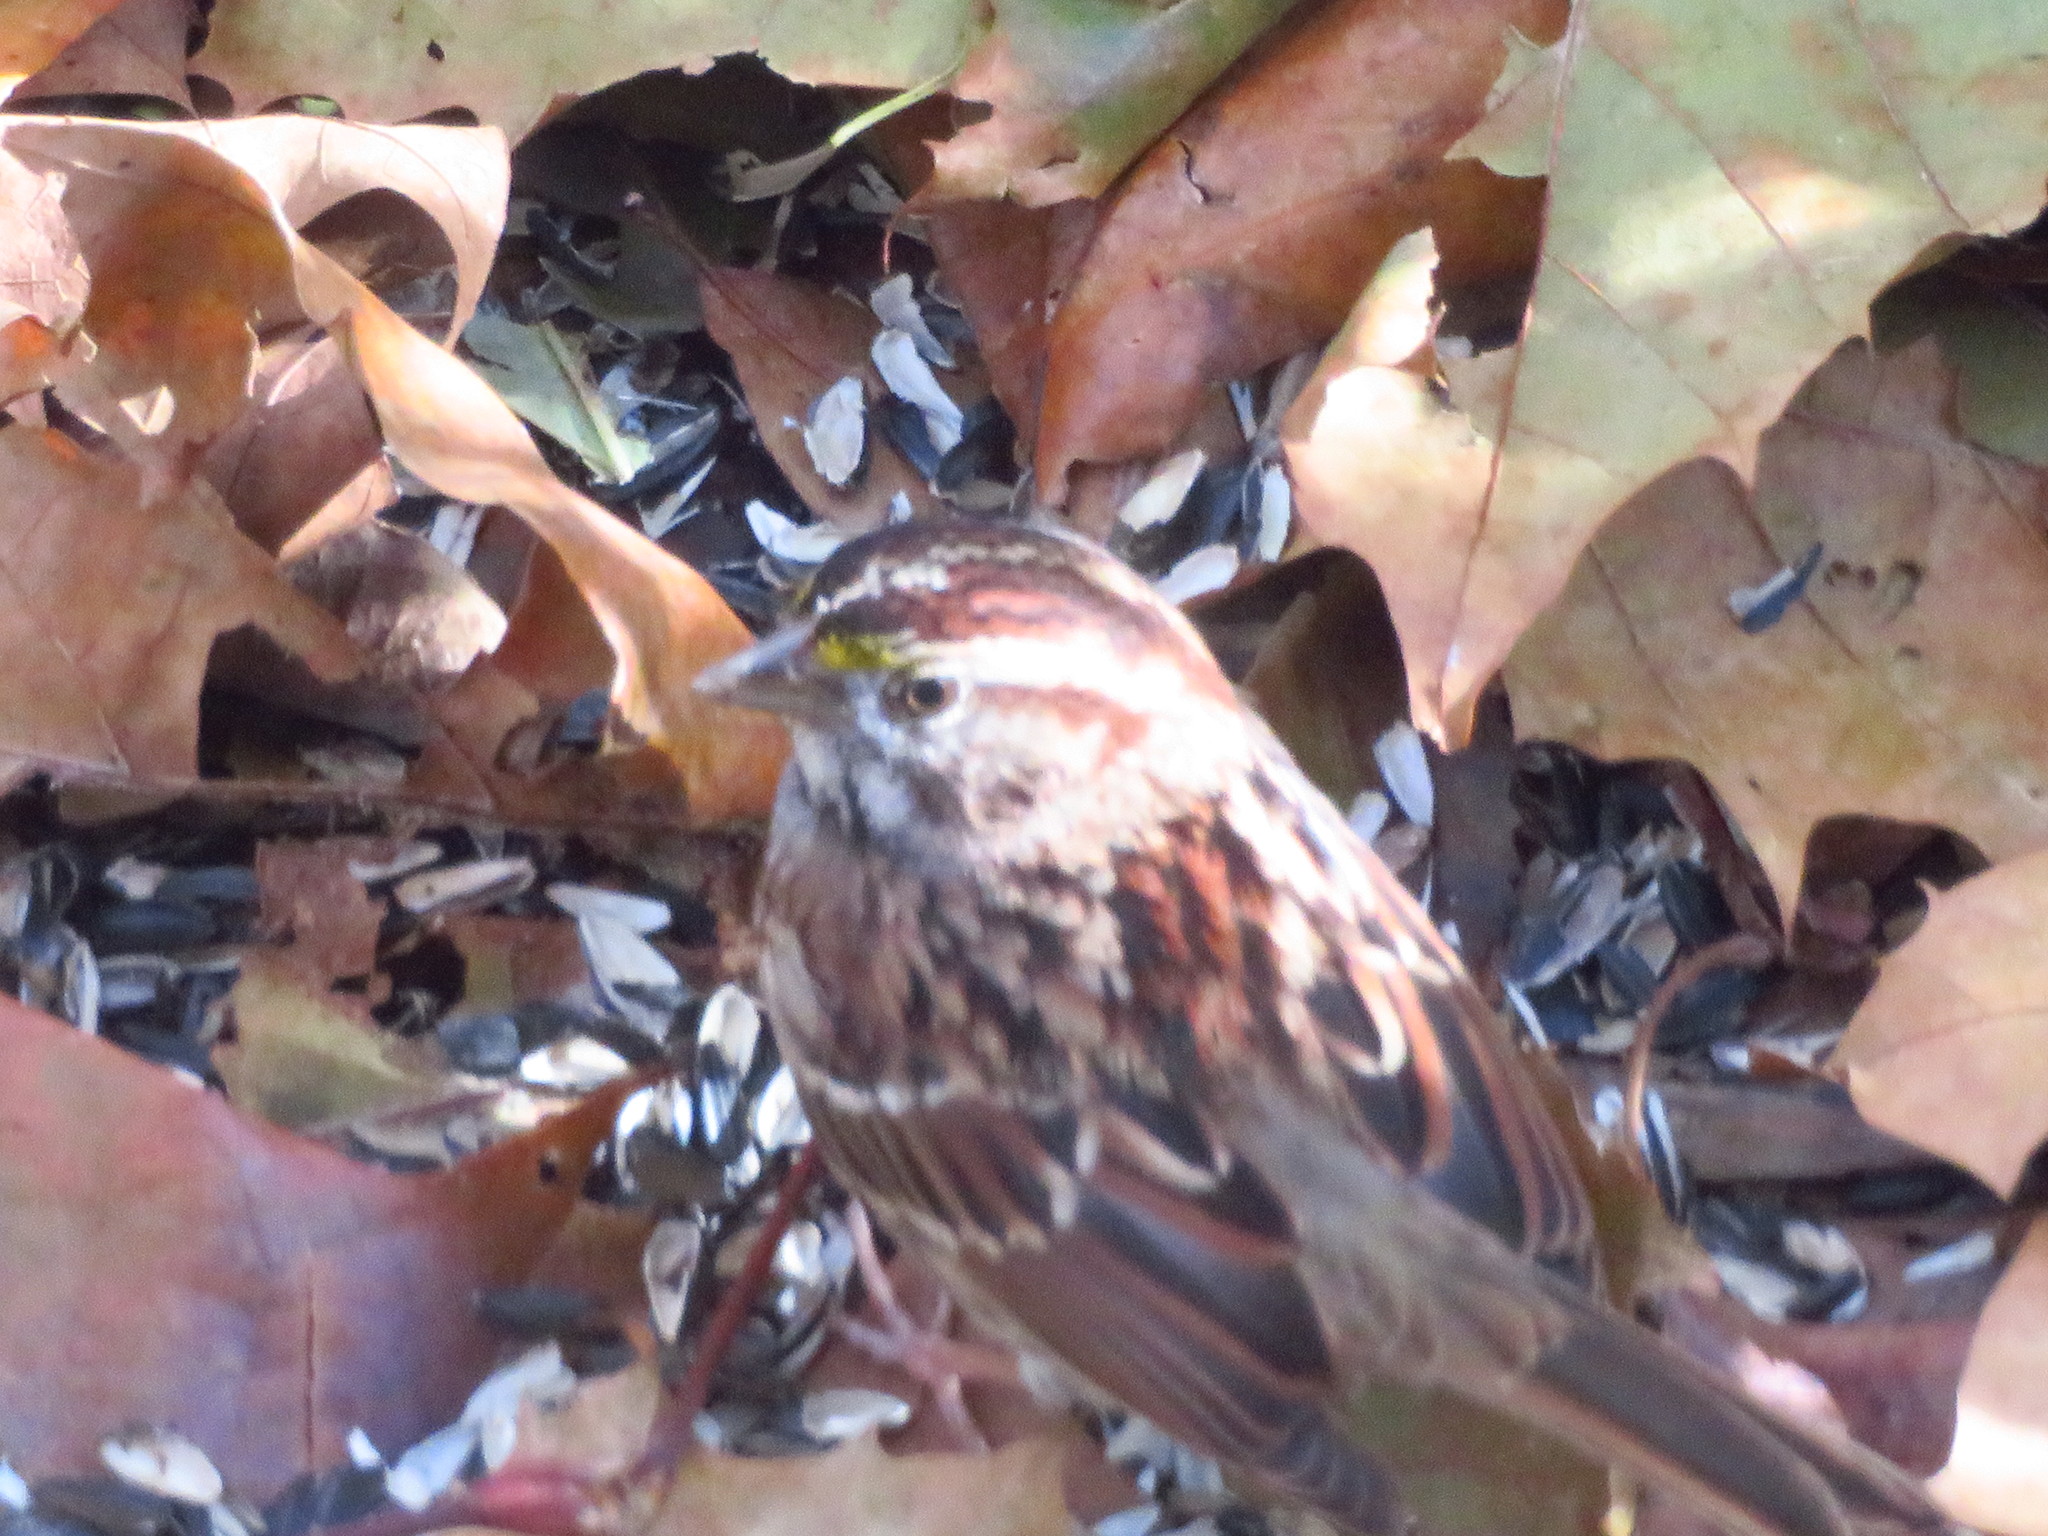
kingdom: Animalia
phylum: Chordata
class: Aves
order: Passeriformes
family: Passerellidae
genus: Zonotrichia
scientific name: Zonotrichia albicollis
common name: White-throated sparrow
